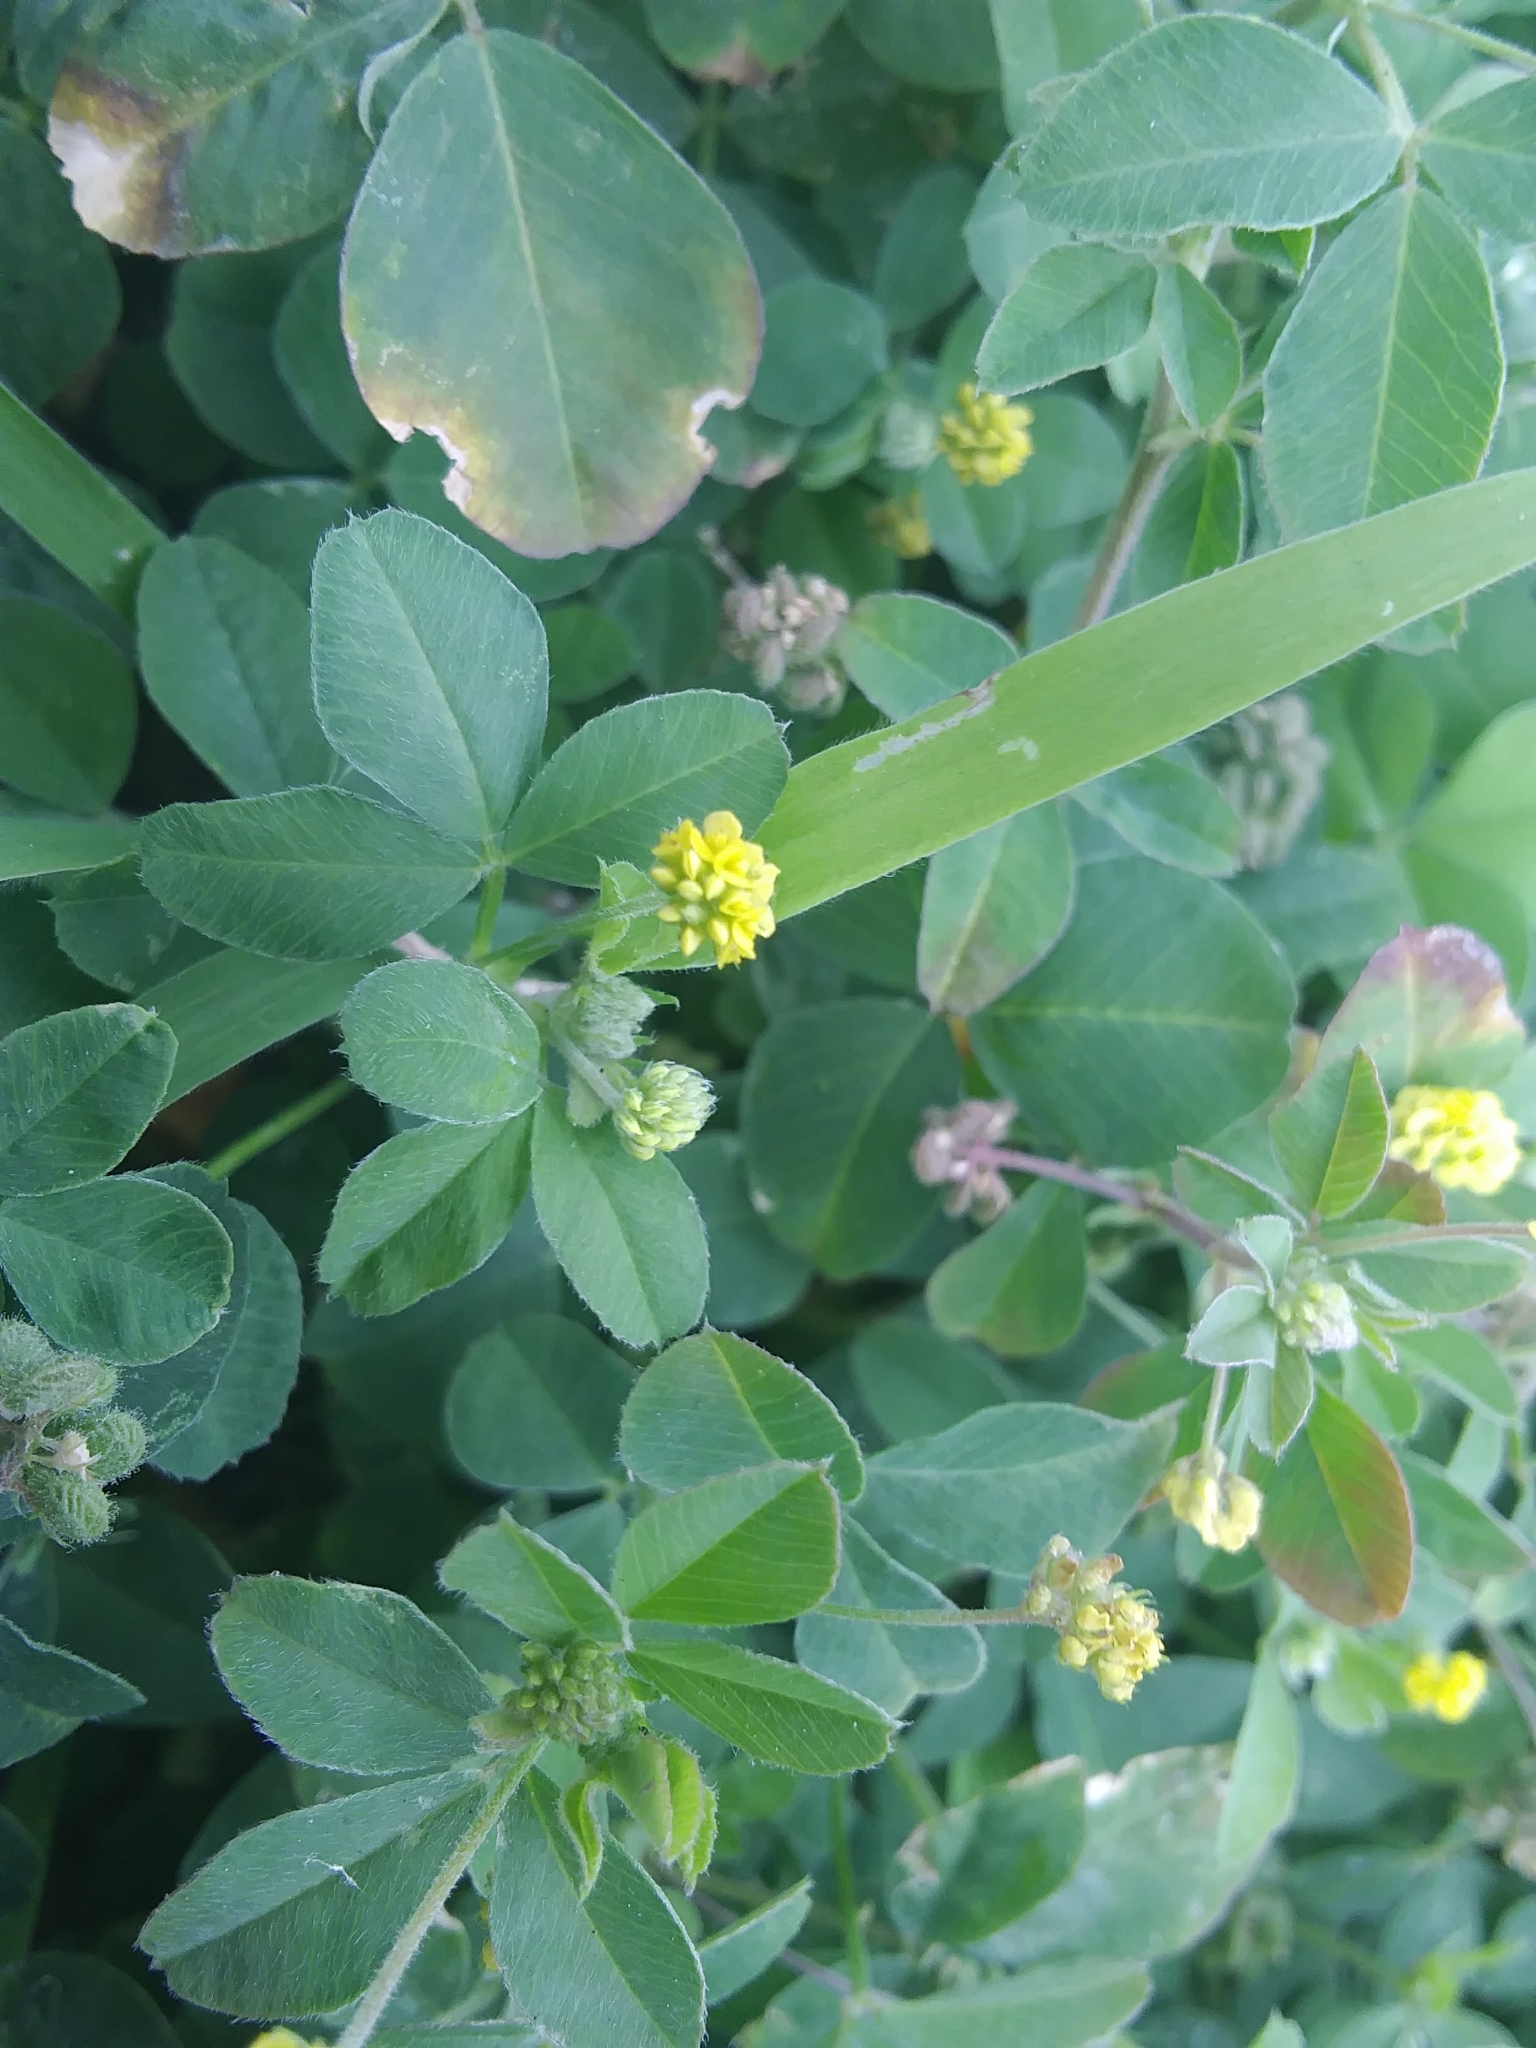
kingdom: Plantae
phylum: Tracheophyta
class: Magnoliopsida
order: Fabales
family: Fabaceae
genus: Medicago
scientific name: Medicago lupulina
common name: Black medick
